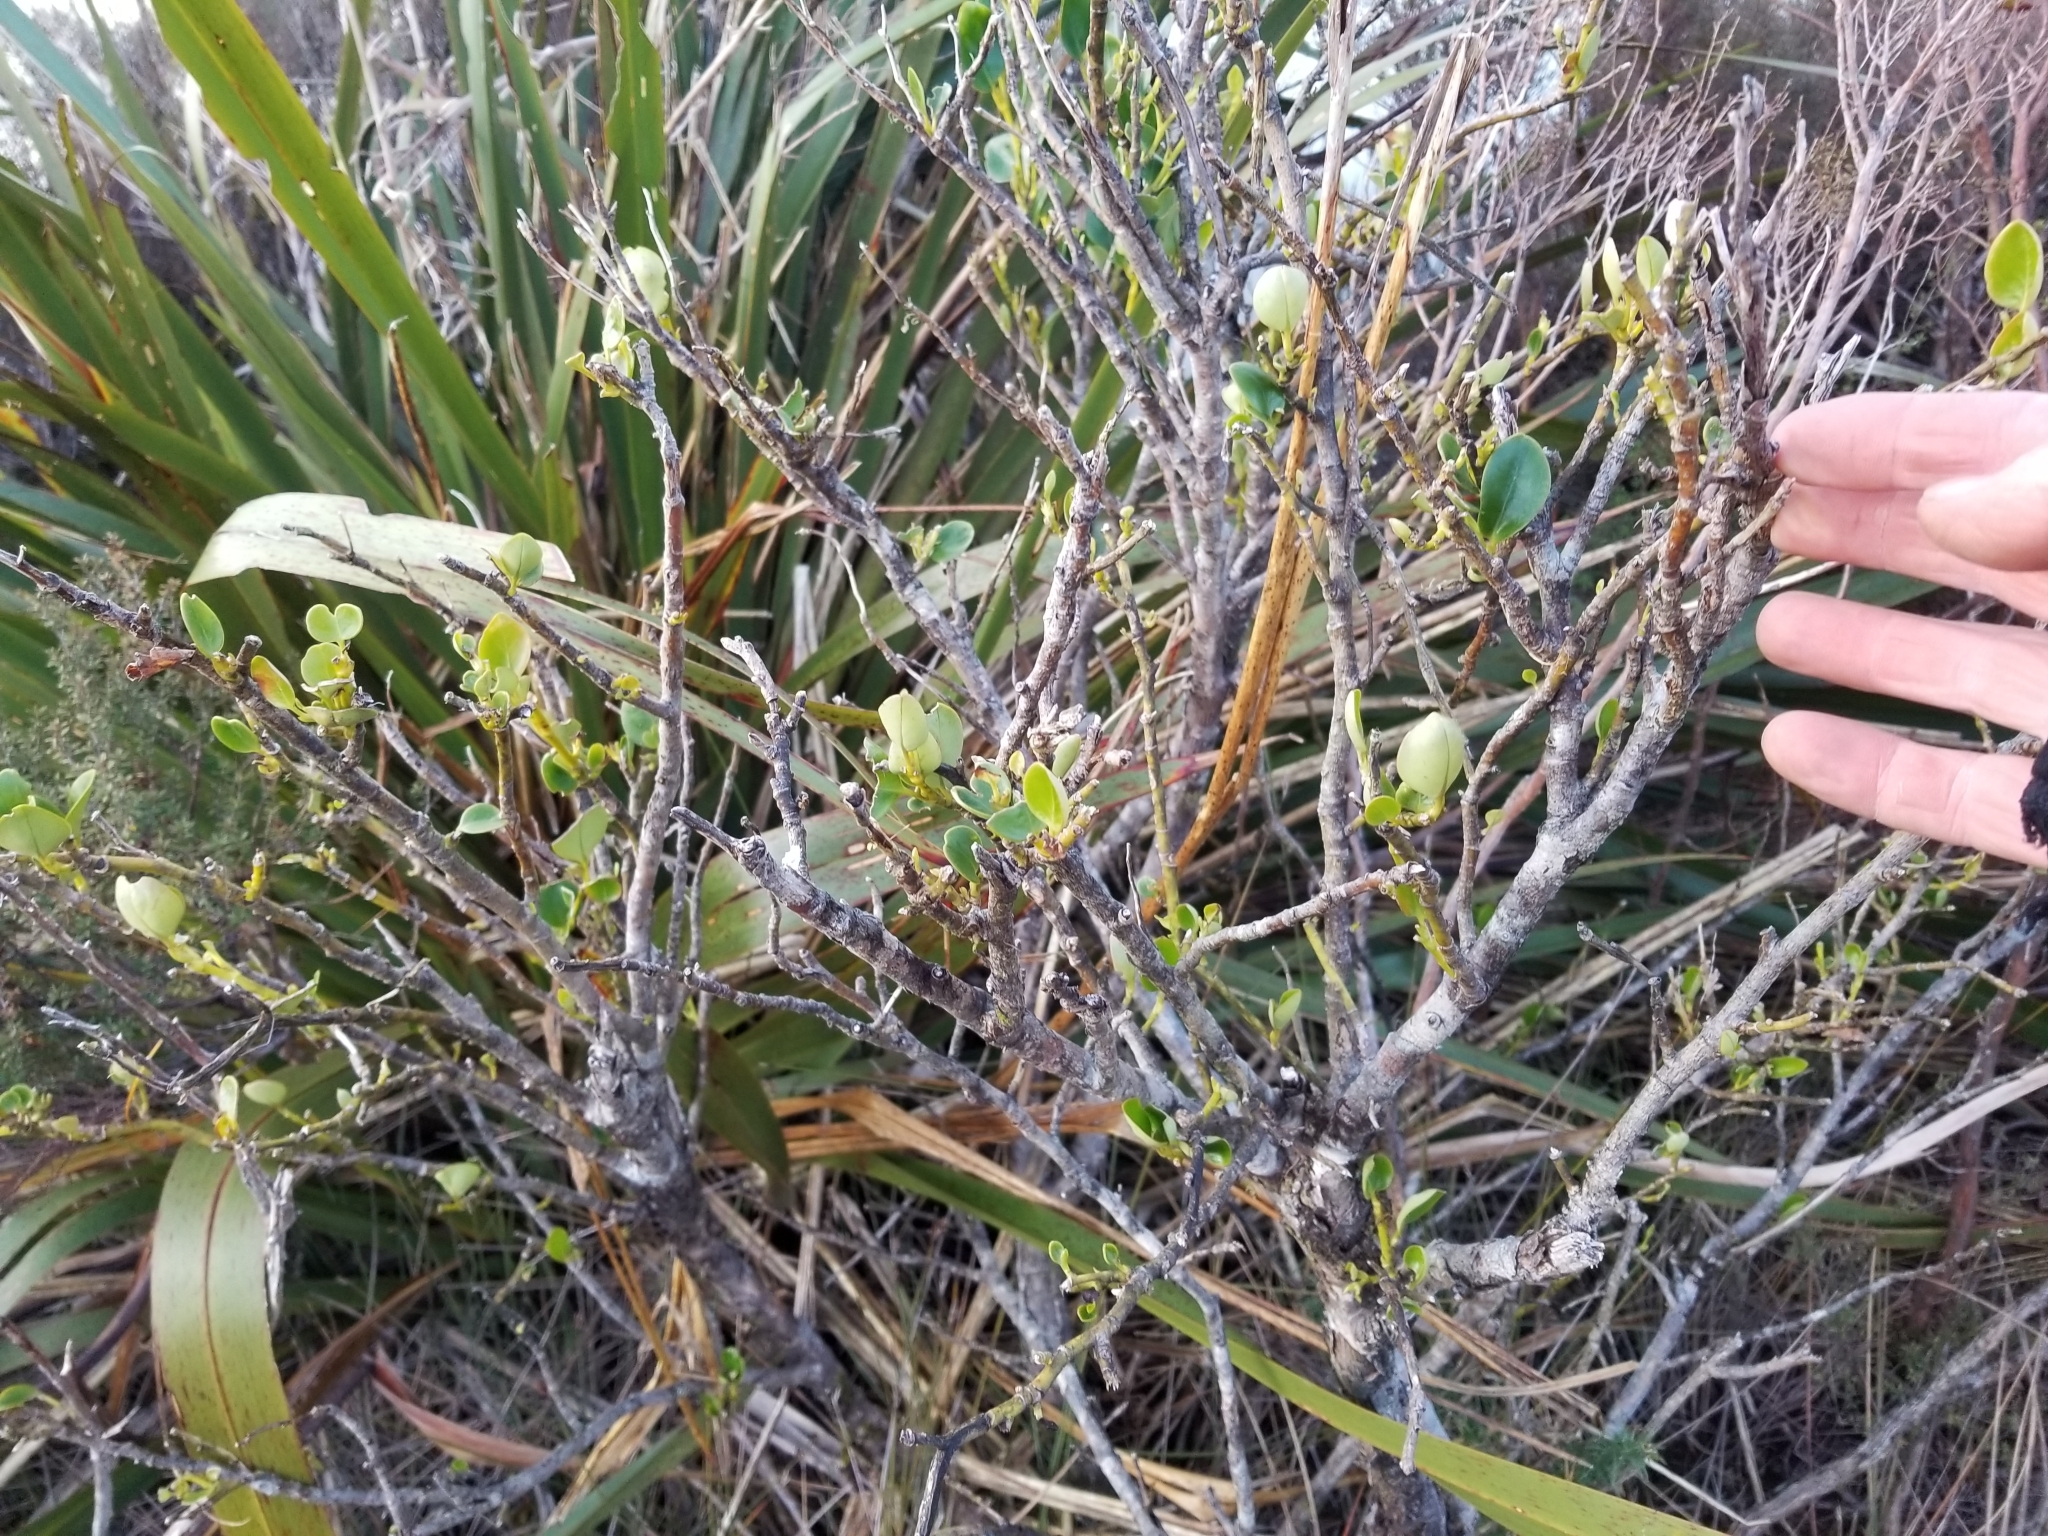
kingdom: Plantae
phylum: Tracheophyta
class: Magnoliopsida
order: Apiales
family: Griseliniaceae
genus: Griselinia
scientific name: Griselinia littoralis
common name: New zealand broadleaf
